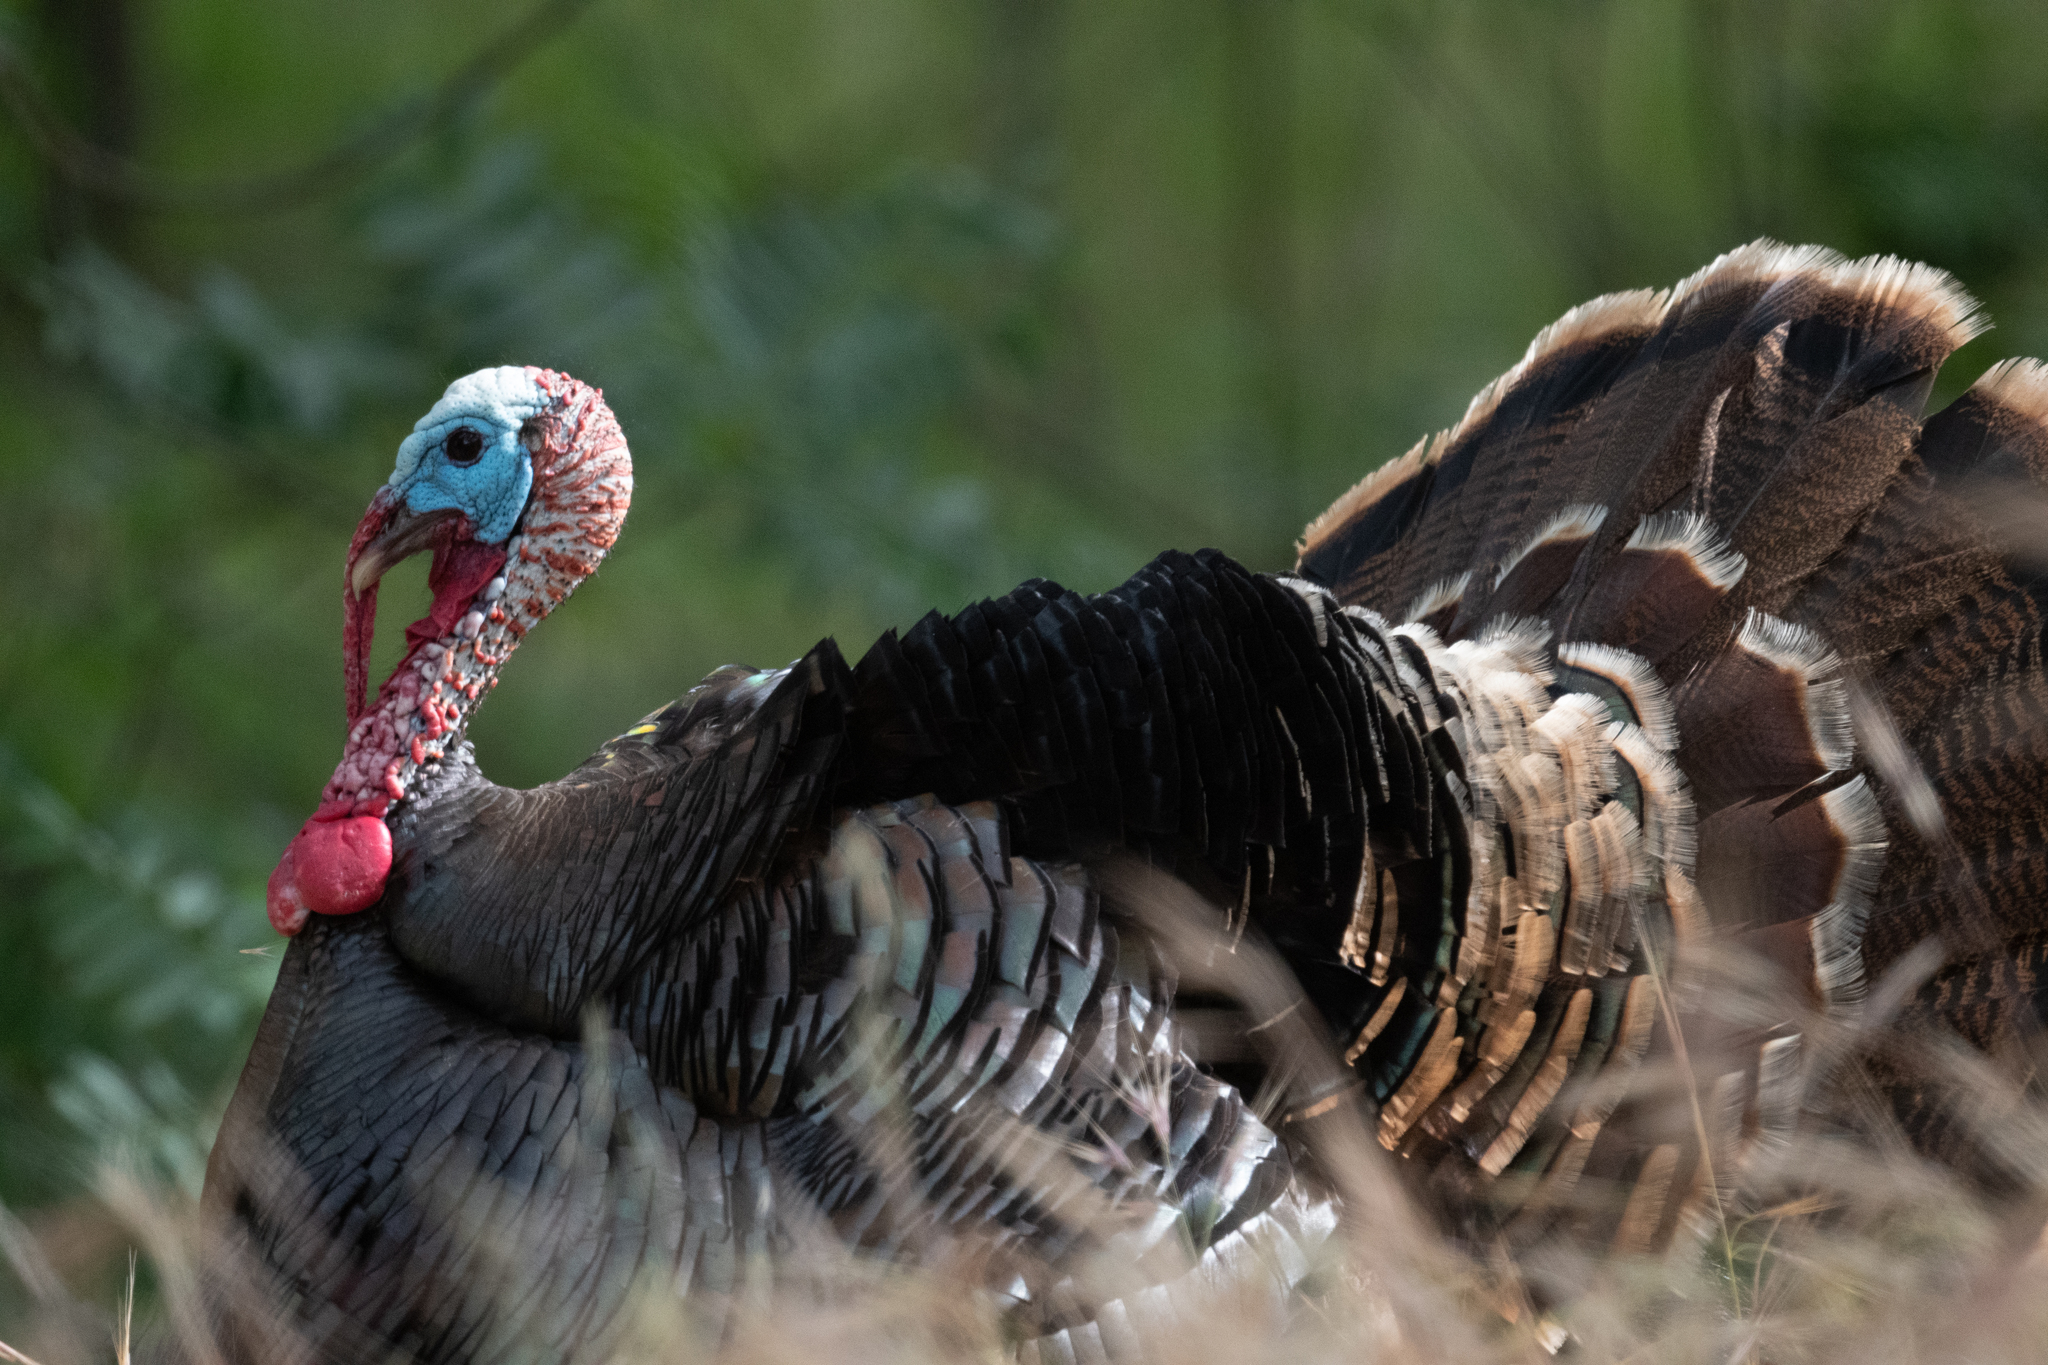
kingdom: Animalia
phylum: Chordata
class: Aves
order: Galliformes
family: Phasianidae
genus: Meleagris
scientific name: Meleagris gallopavo
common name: Wild turkey
